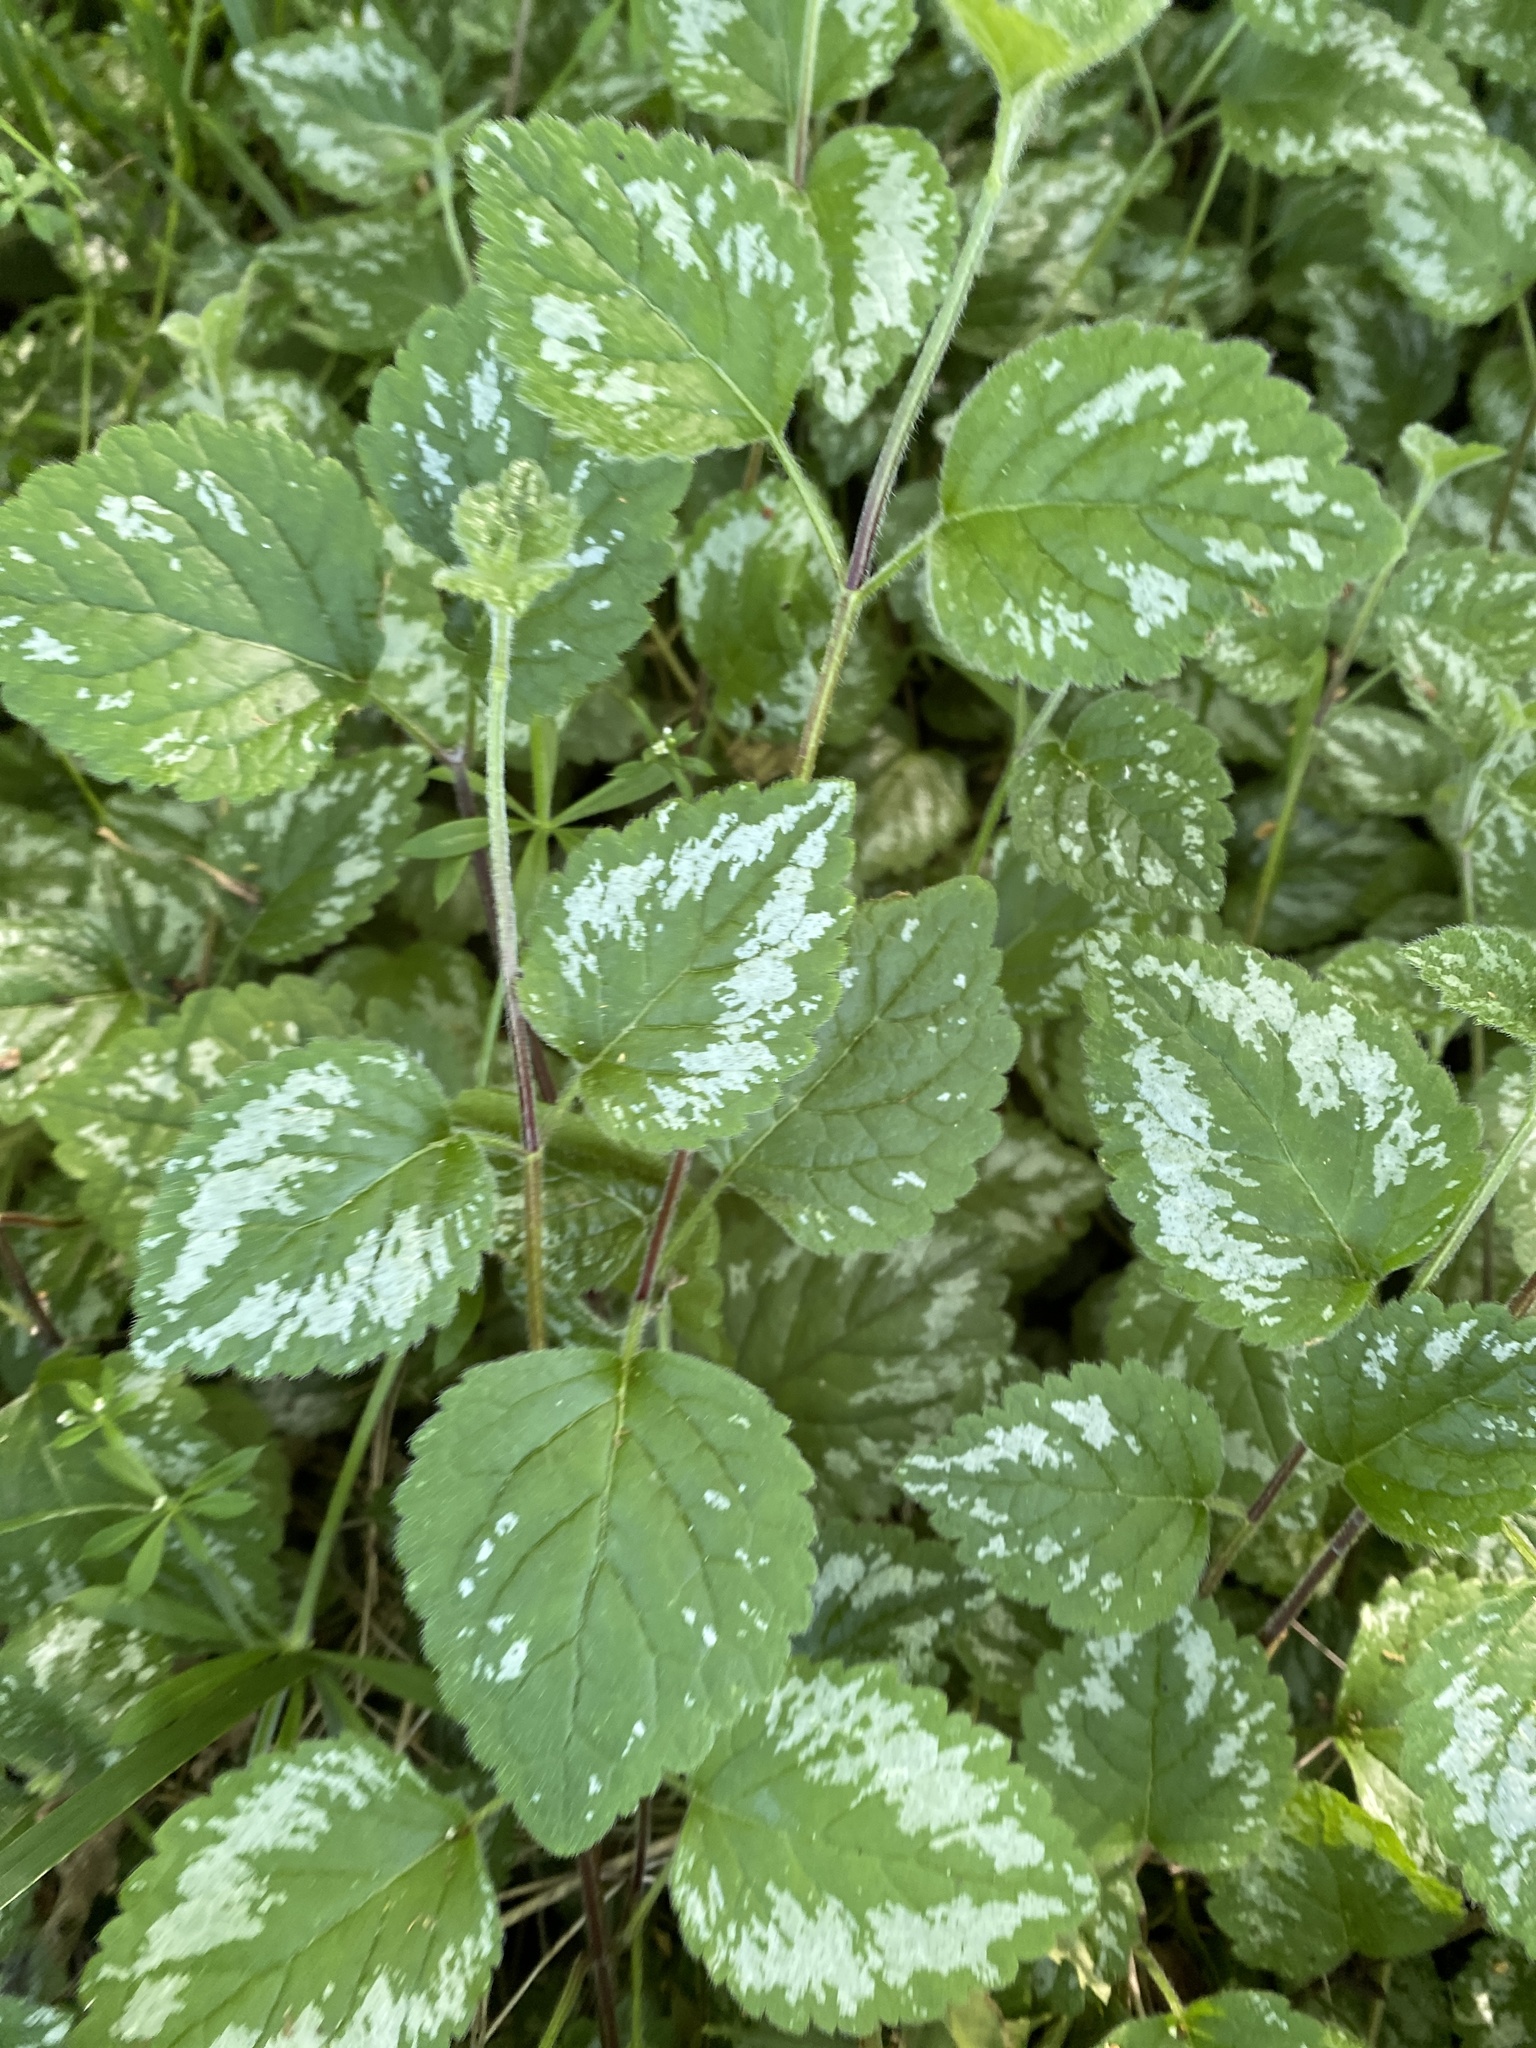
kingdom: Plantae
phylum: Tracheophyta
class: Magnoliopsida
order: Lamiales
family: Lamiaceae
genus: Lamium
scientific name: Lamium galeobdolon
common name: Yellow archangel
